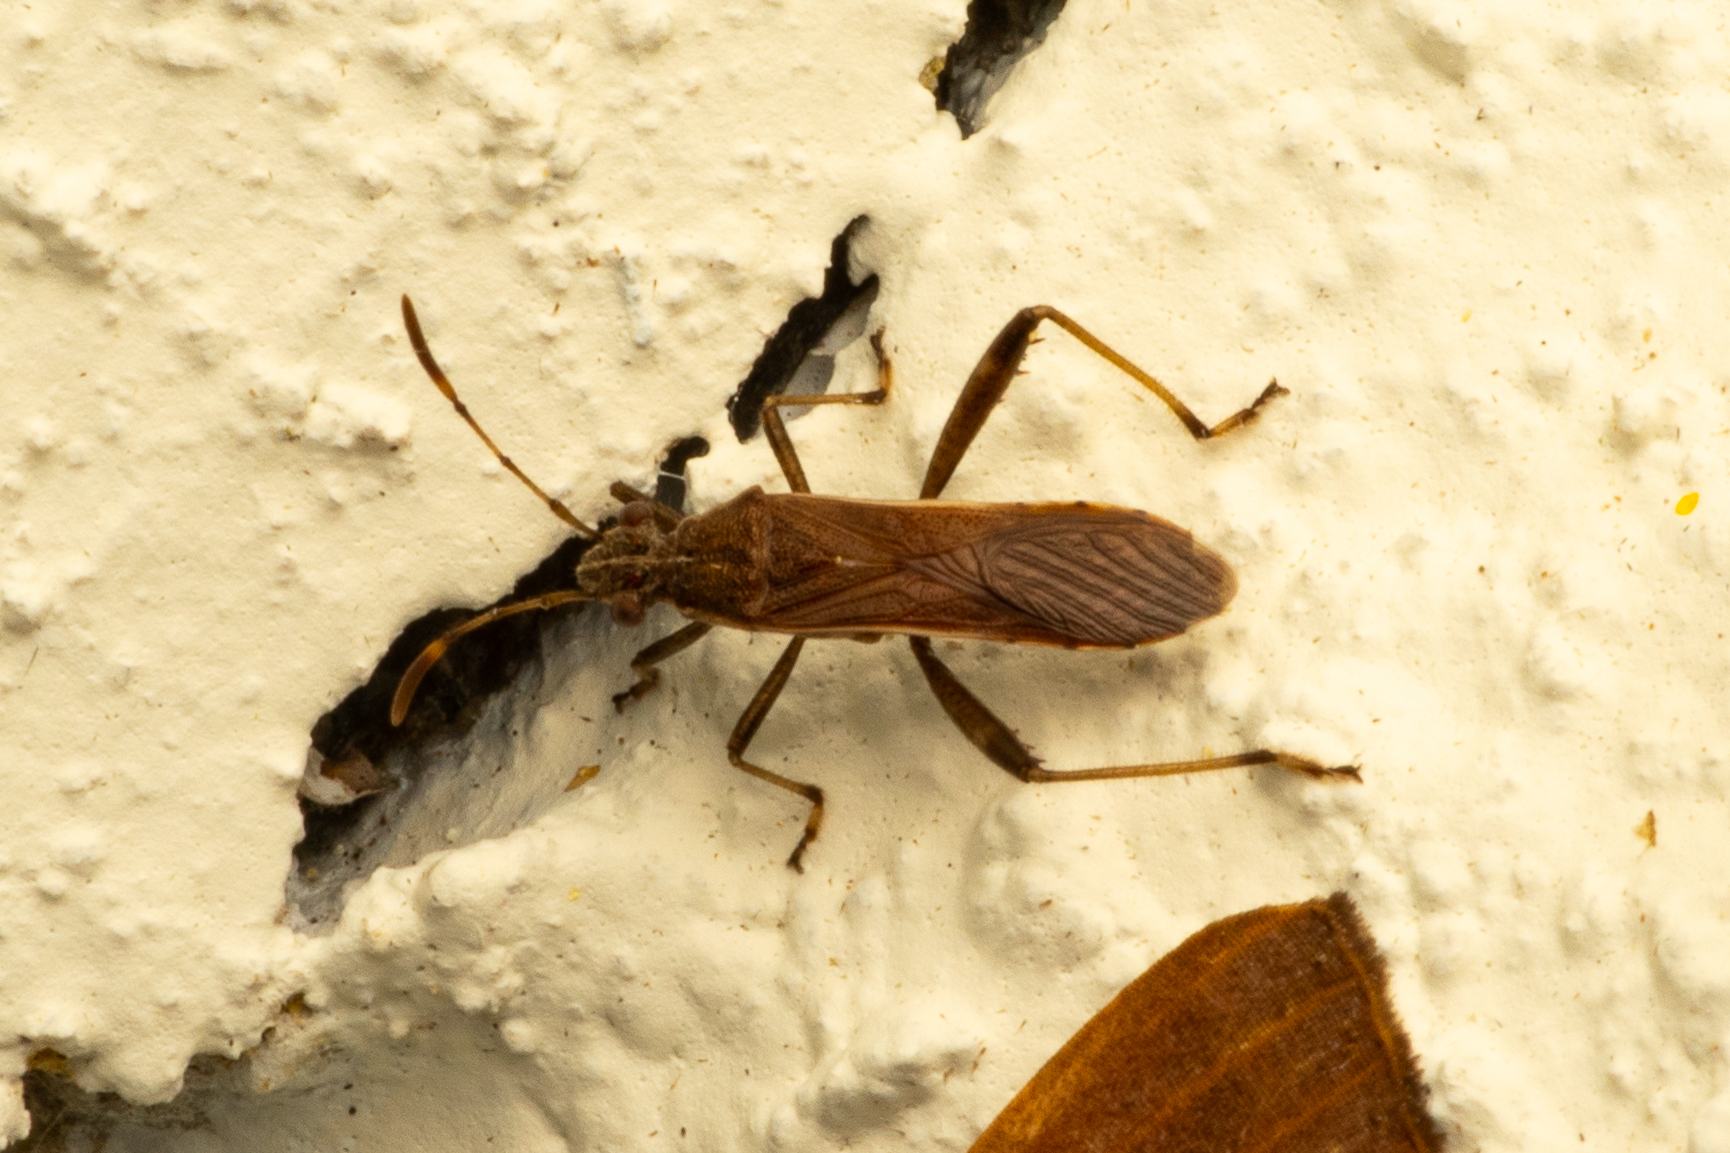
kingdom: Animalia
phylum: Arthropoda
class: Insecta
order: Hemiptera
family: Alydidae
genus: Burtinus
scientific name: Burtinus luteomarginatus
